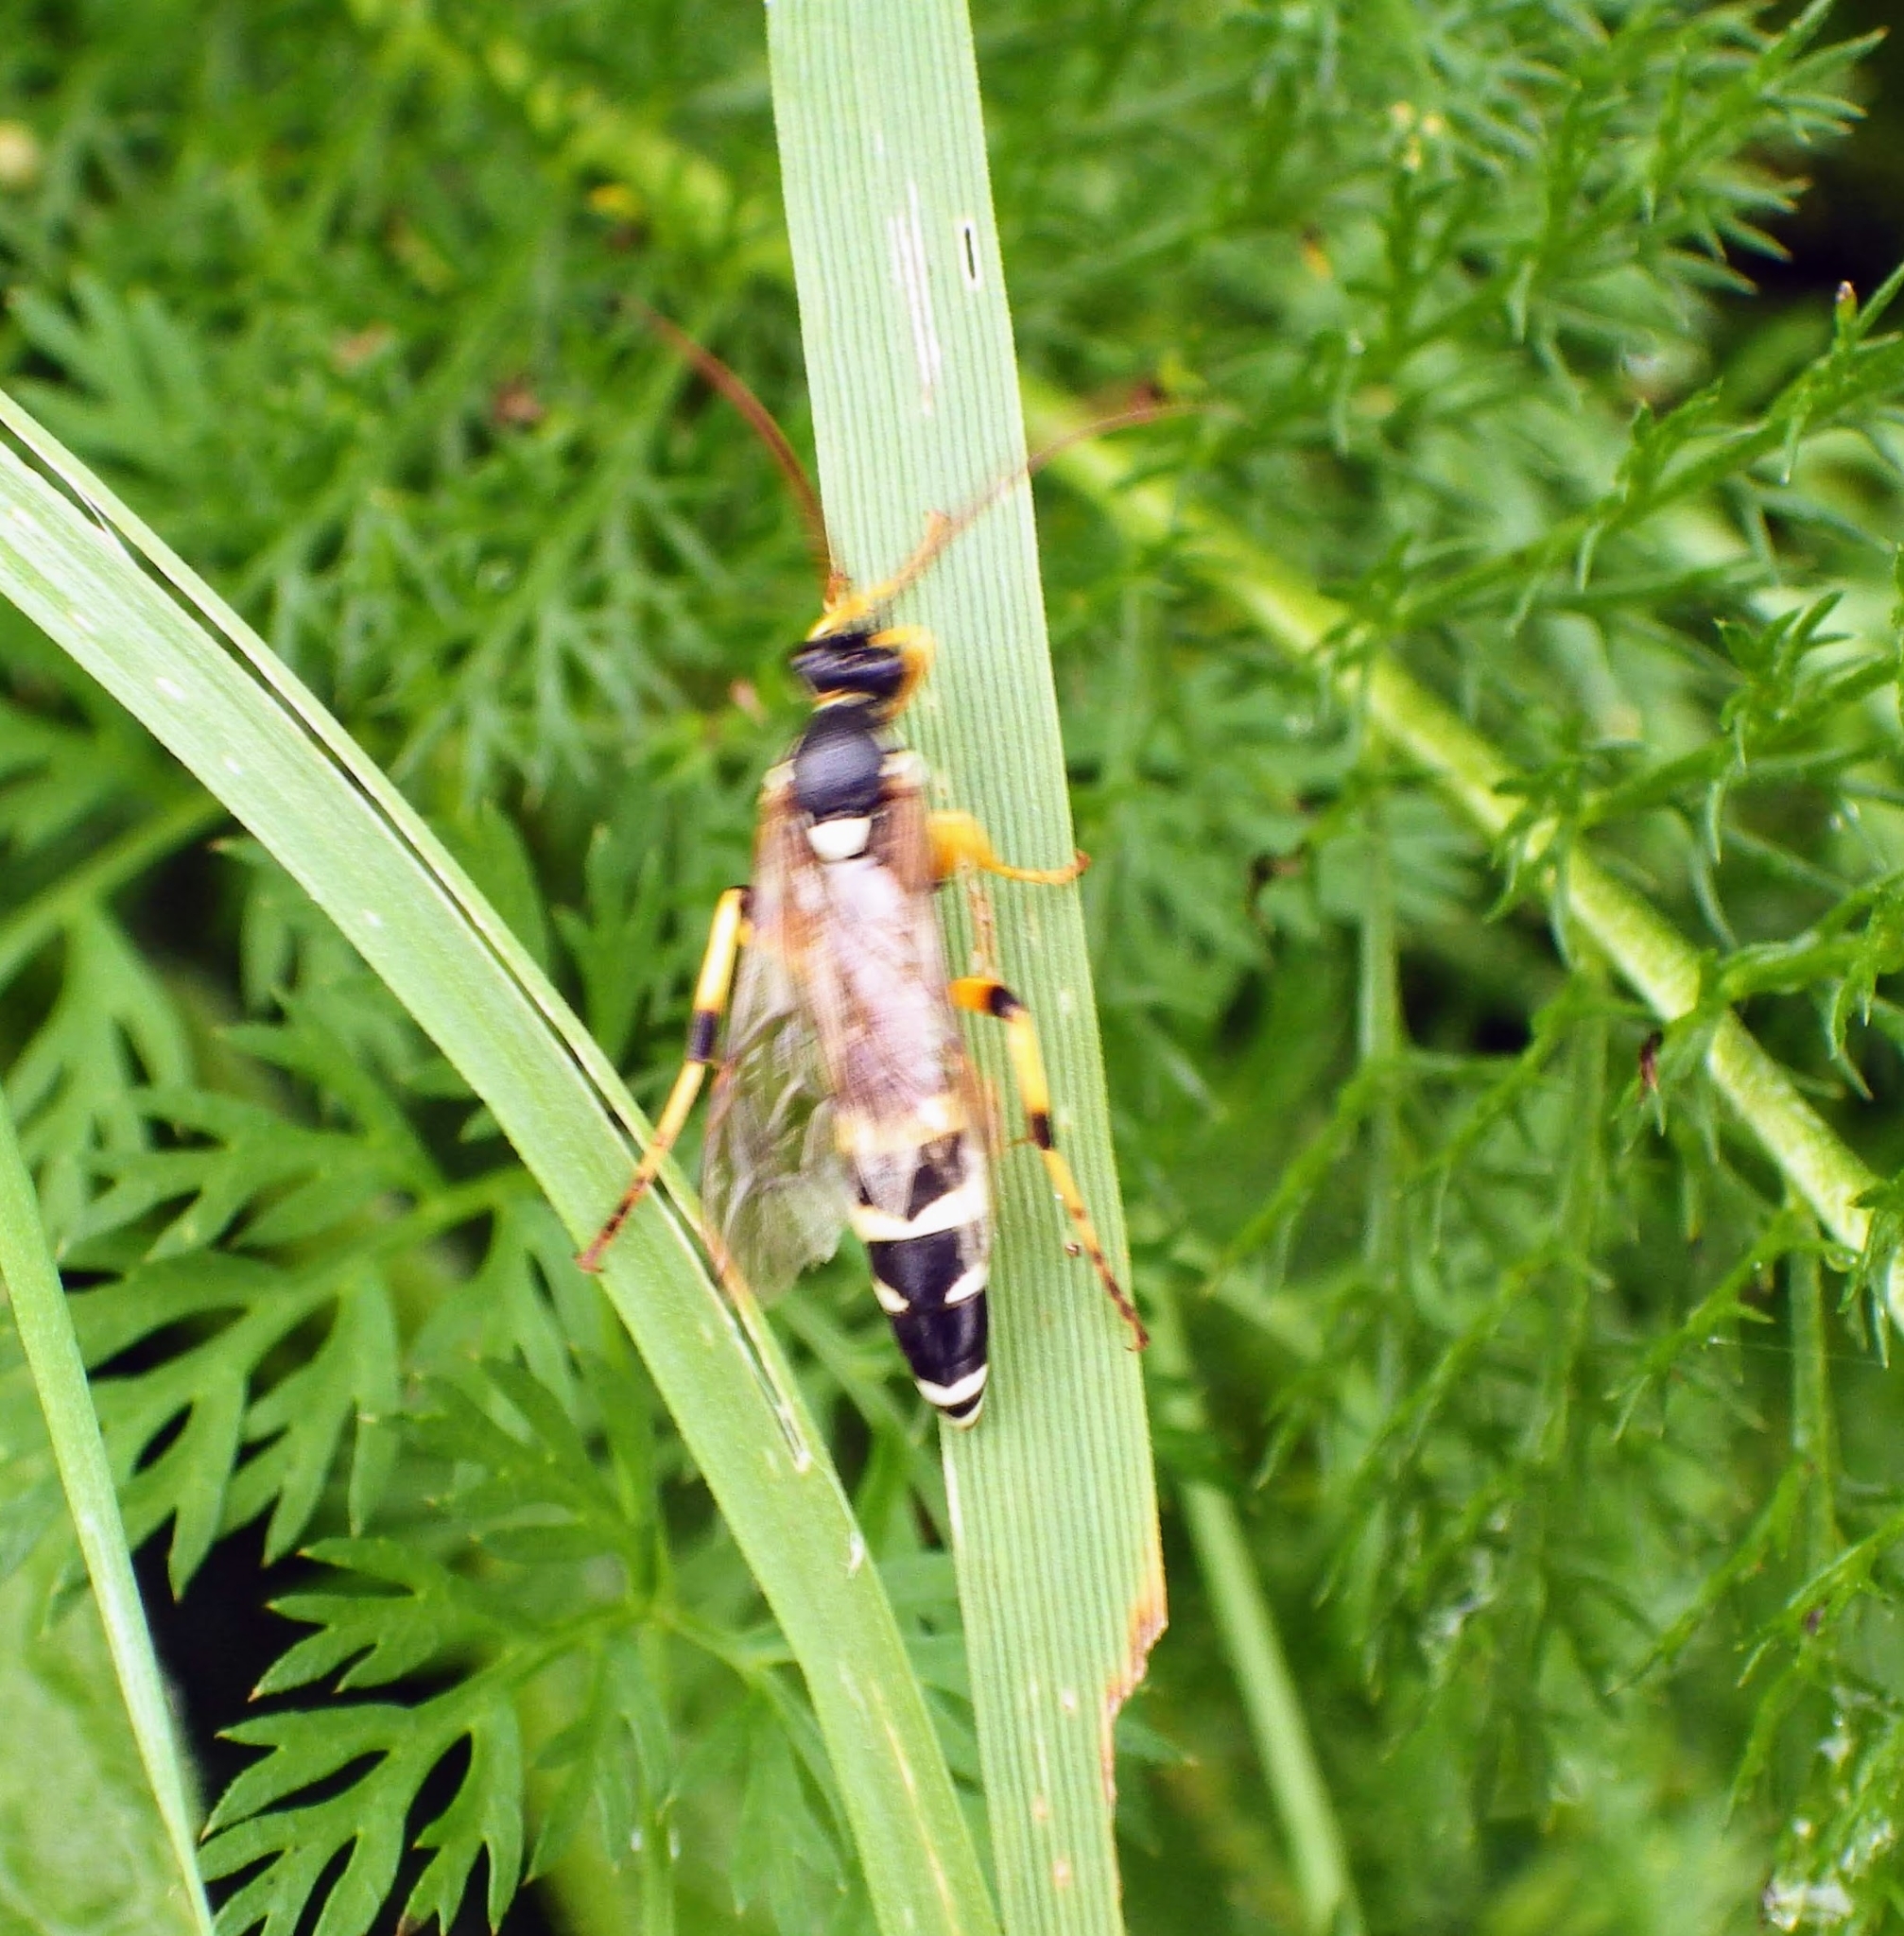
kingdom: Animalia
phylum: Arthropoda
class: Insecta
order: Hymenoptera
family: Ichneumonidae
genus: Ichneumon
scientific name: Ichneumon sarcitorius
